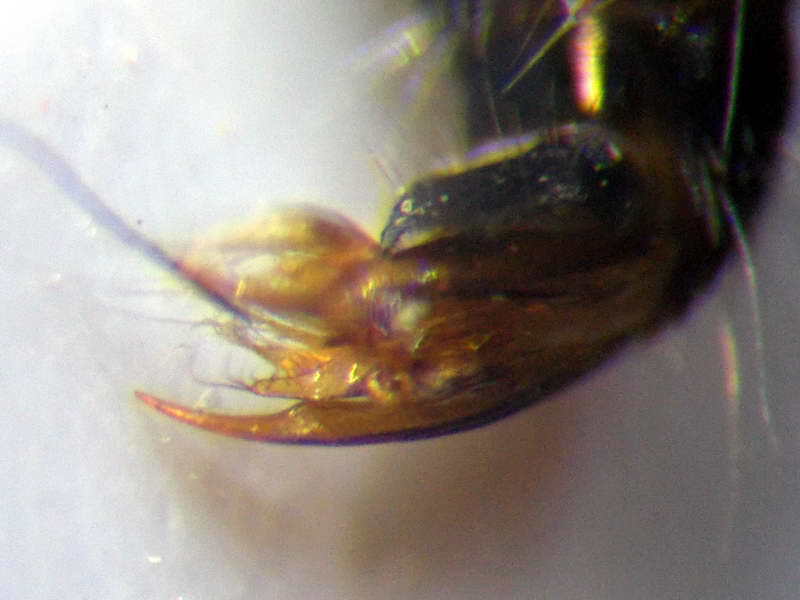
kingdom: Animalia
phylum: Arthropoda
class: Insecta
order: Hymenoptera
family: Mutillidae
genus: Smicromyrme
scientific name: Smicromyrme rufipes
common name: Small velvet ant
